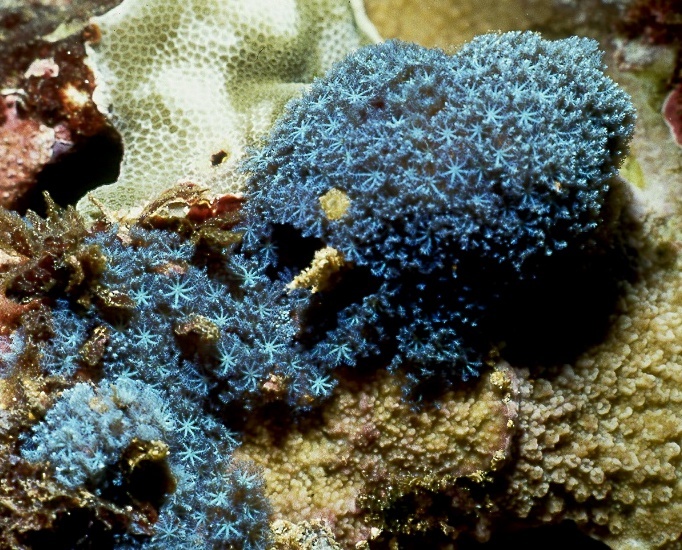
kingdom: Animalia
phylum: Cnidaria
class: Anthozoa
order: Malacalcyonacea
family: Xeniidae
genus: Sarcothelia
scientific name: Sarcothelia edmondsoni
